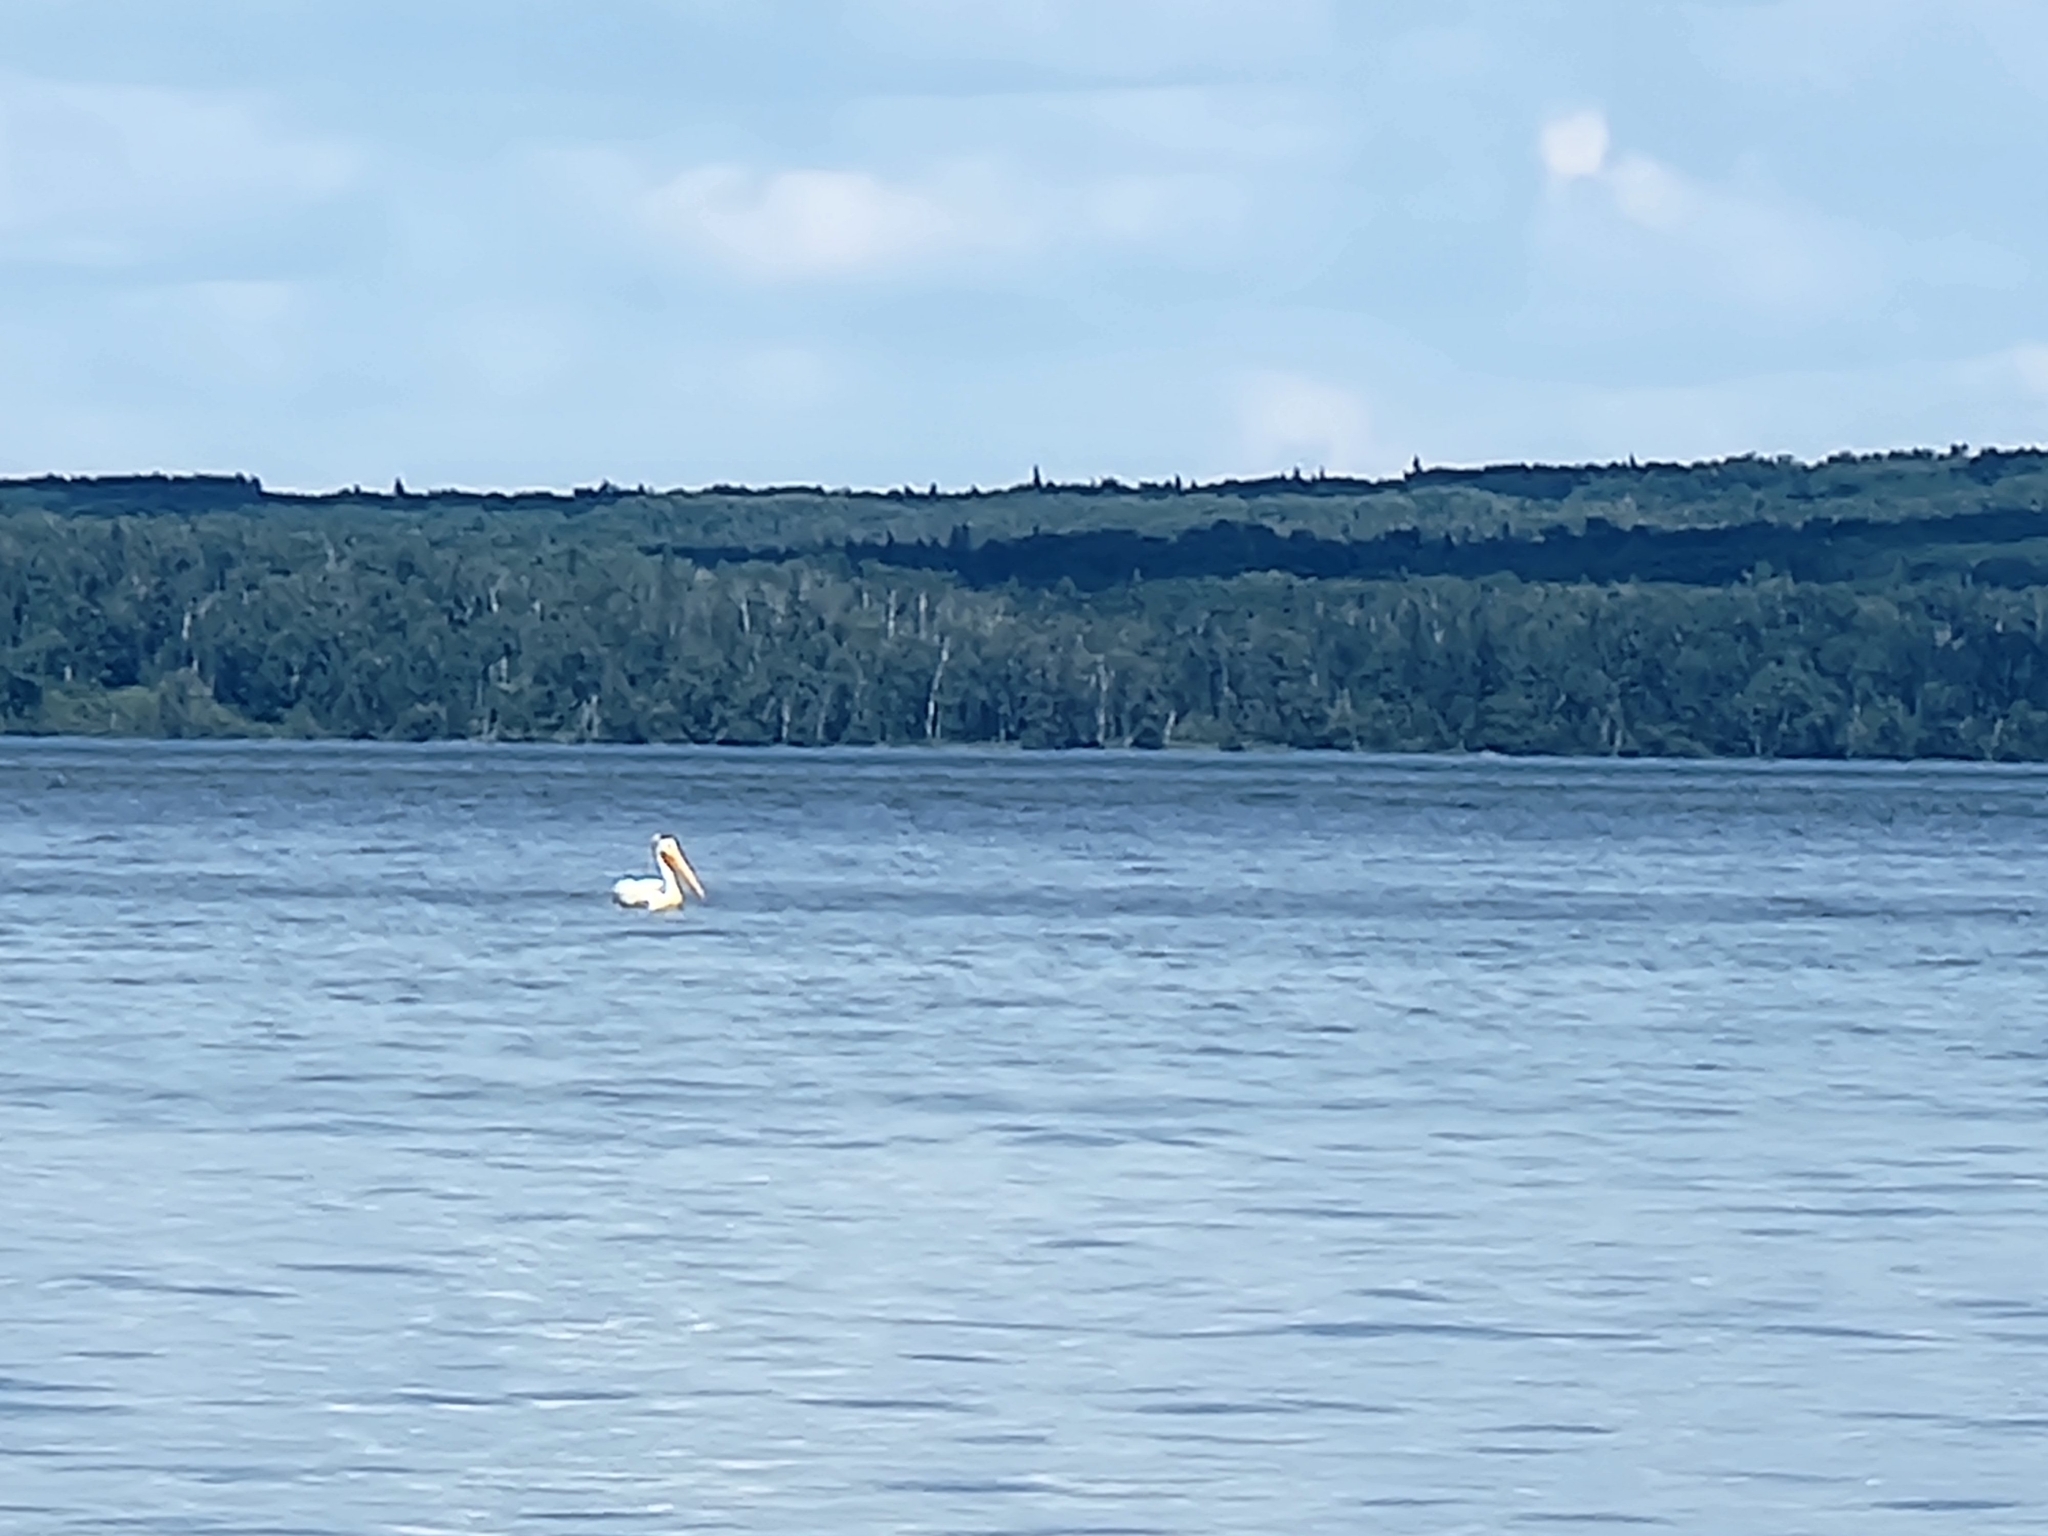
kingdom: Animalia
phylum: Chordata
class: Aves
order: Pelecaniformes
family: Pelecanidae
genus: Pelecanus
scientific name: Pelecanus erythrorhynchos
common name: American white pelican
